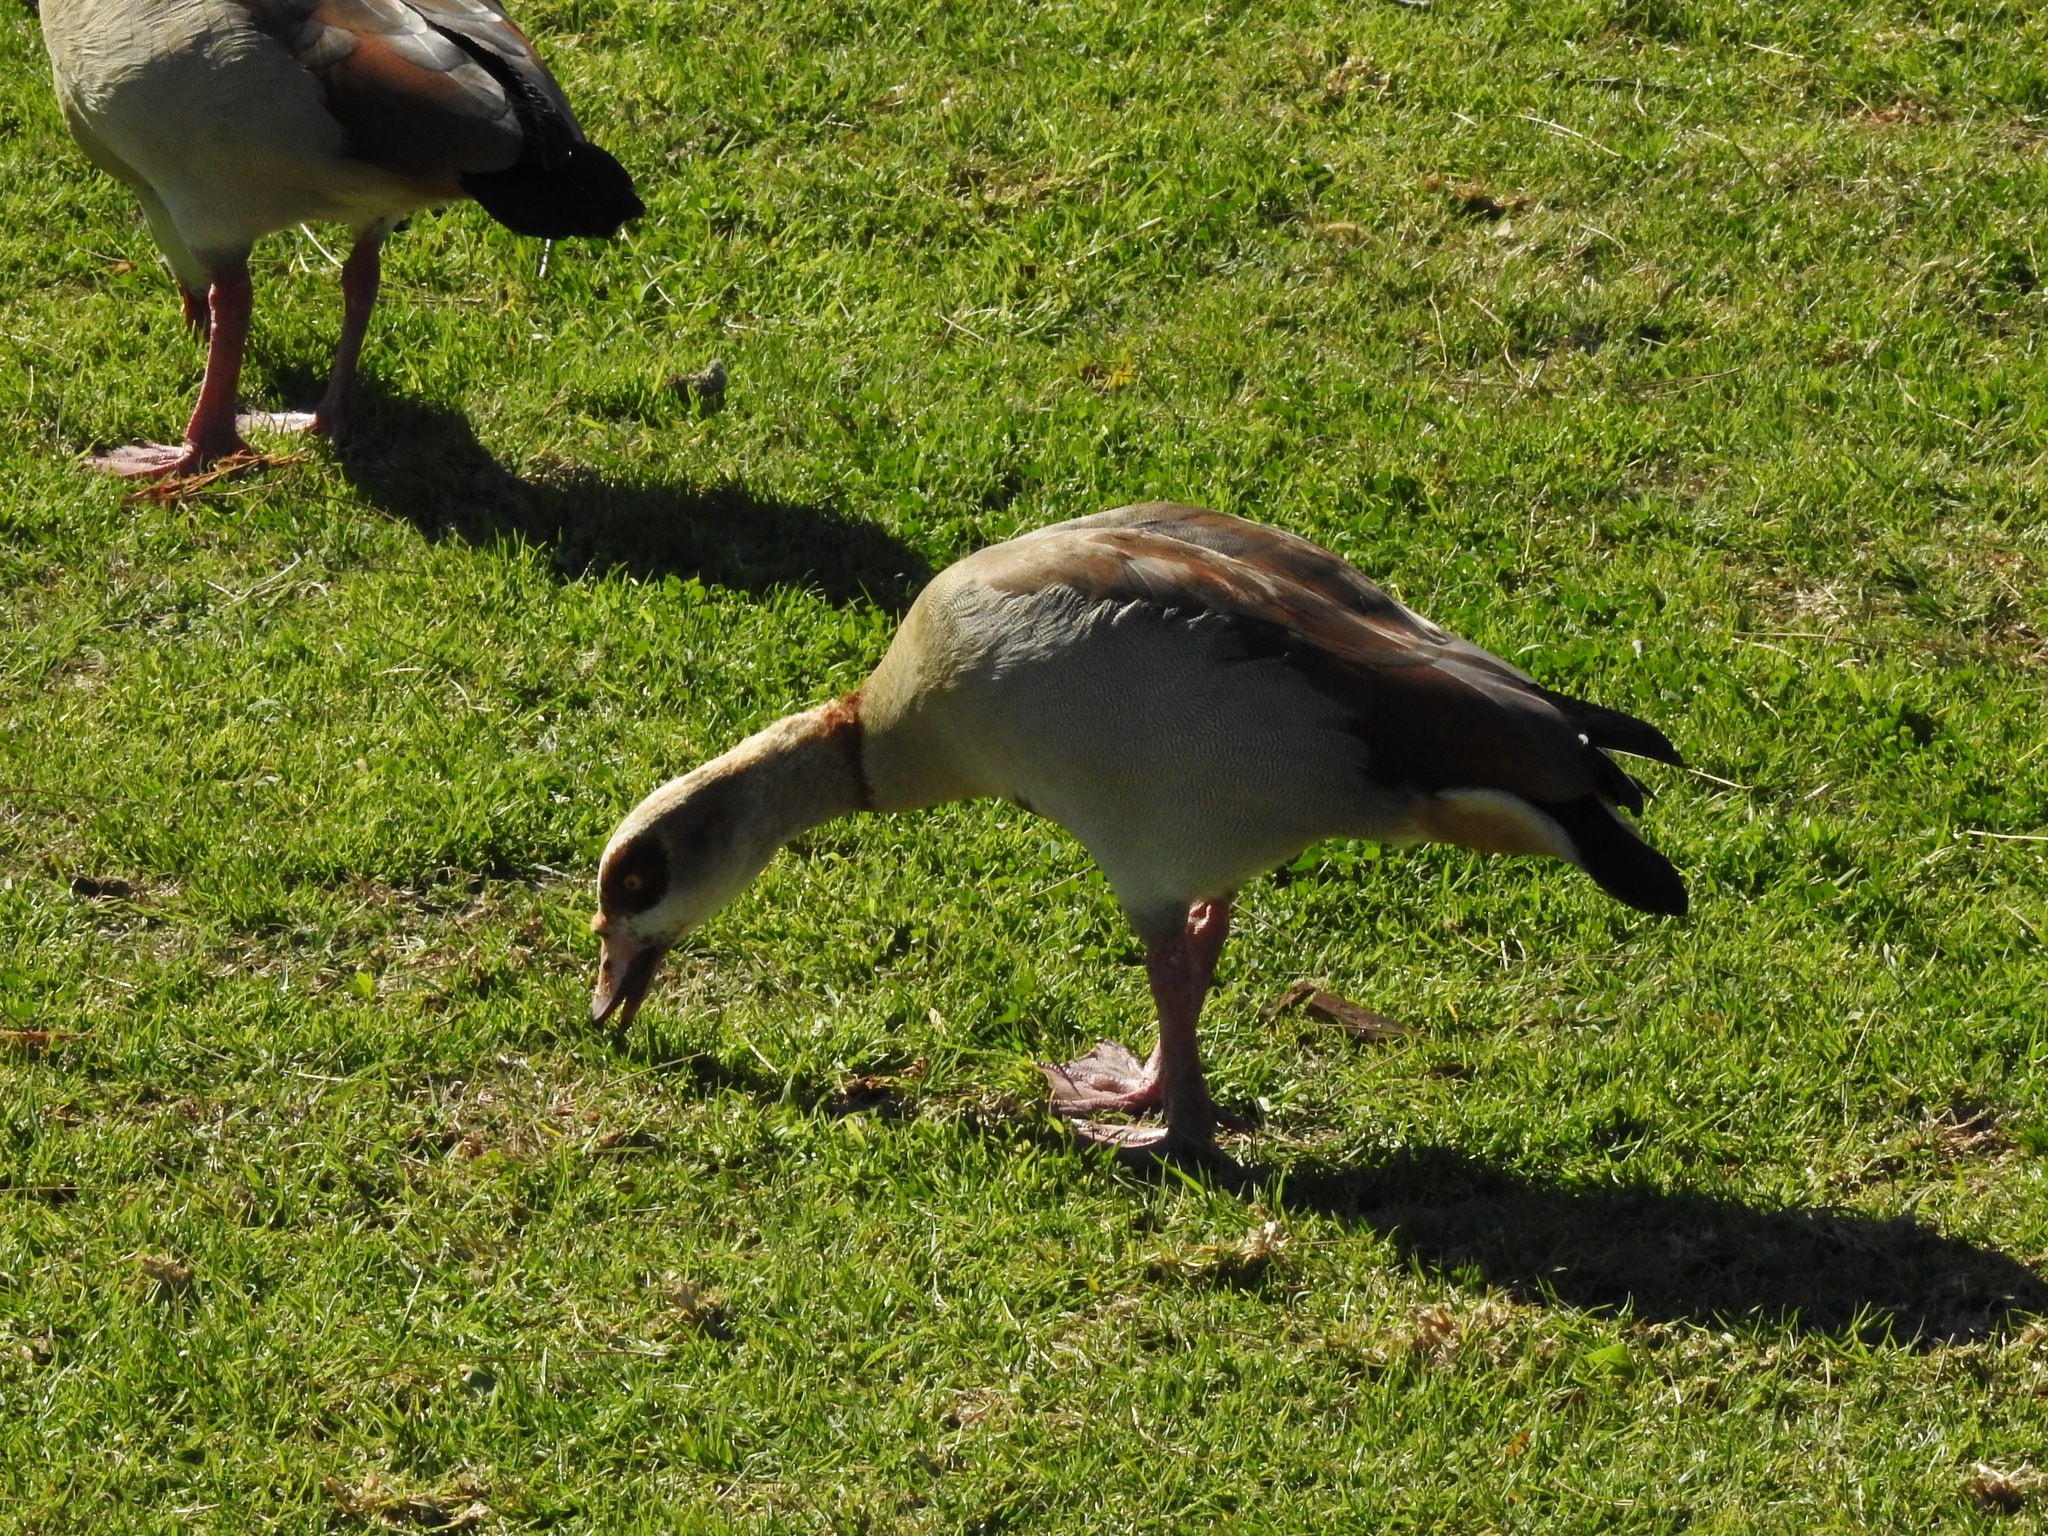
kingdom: Animalia
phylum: Chordata
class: Aves
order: Anseriformes
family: Anatidae
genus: Alopochen
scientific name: Alopochen aegyptiaca
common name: Egyptian goose
